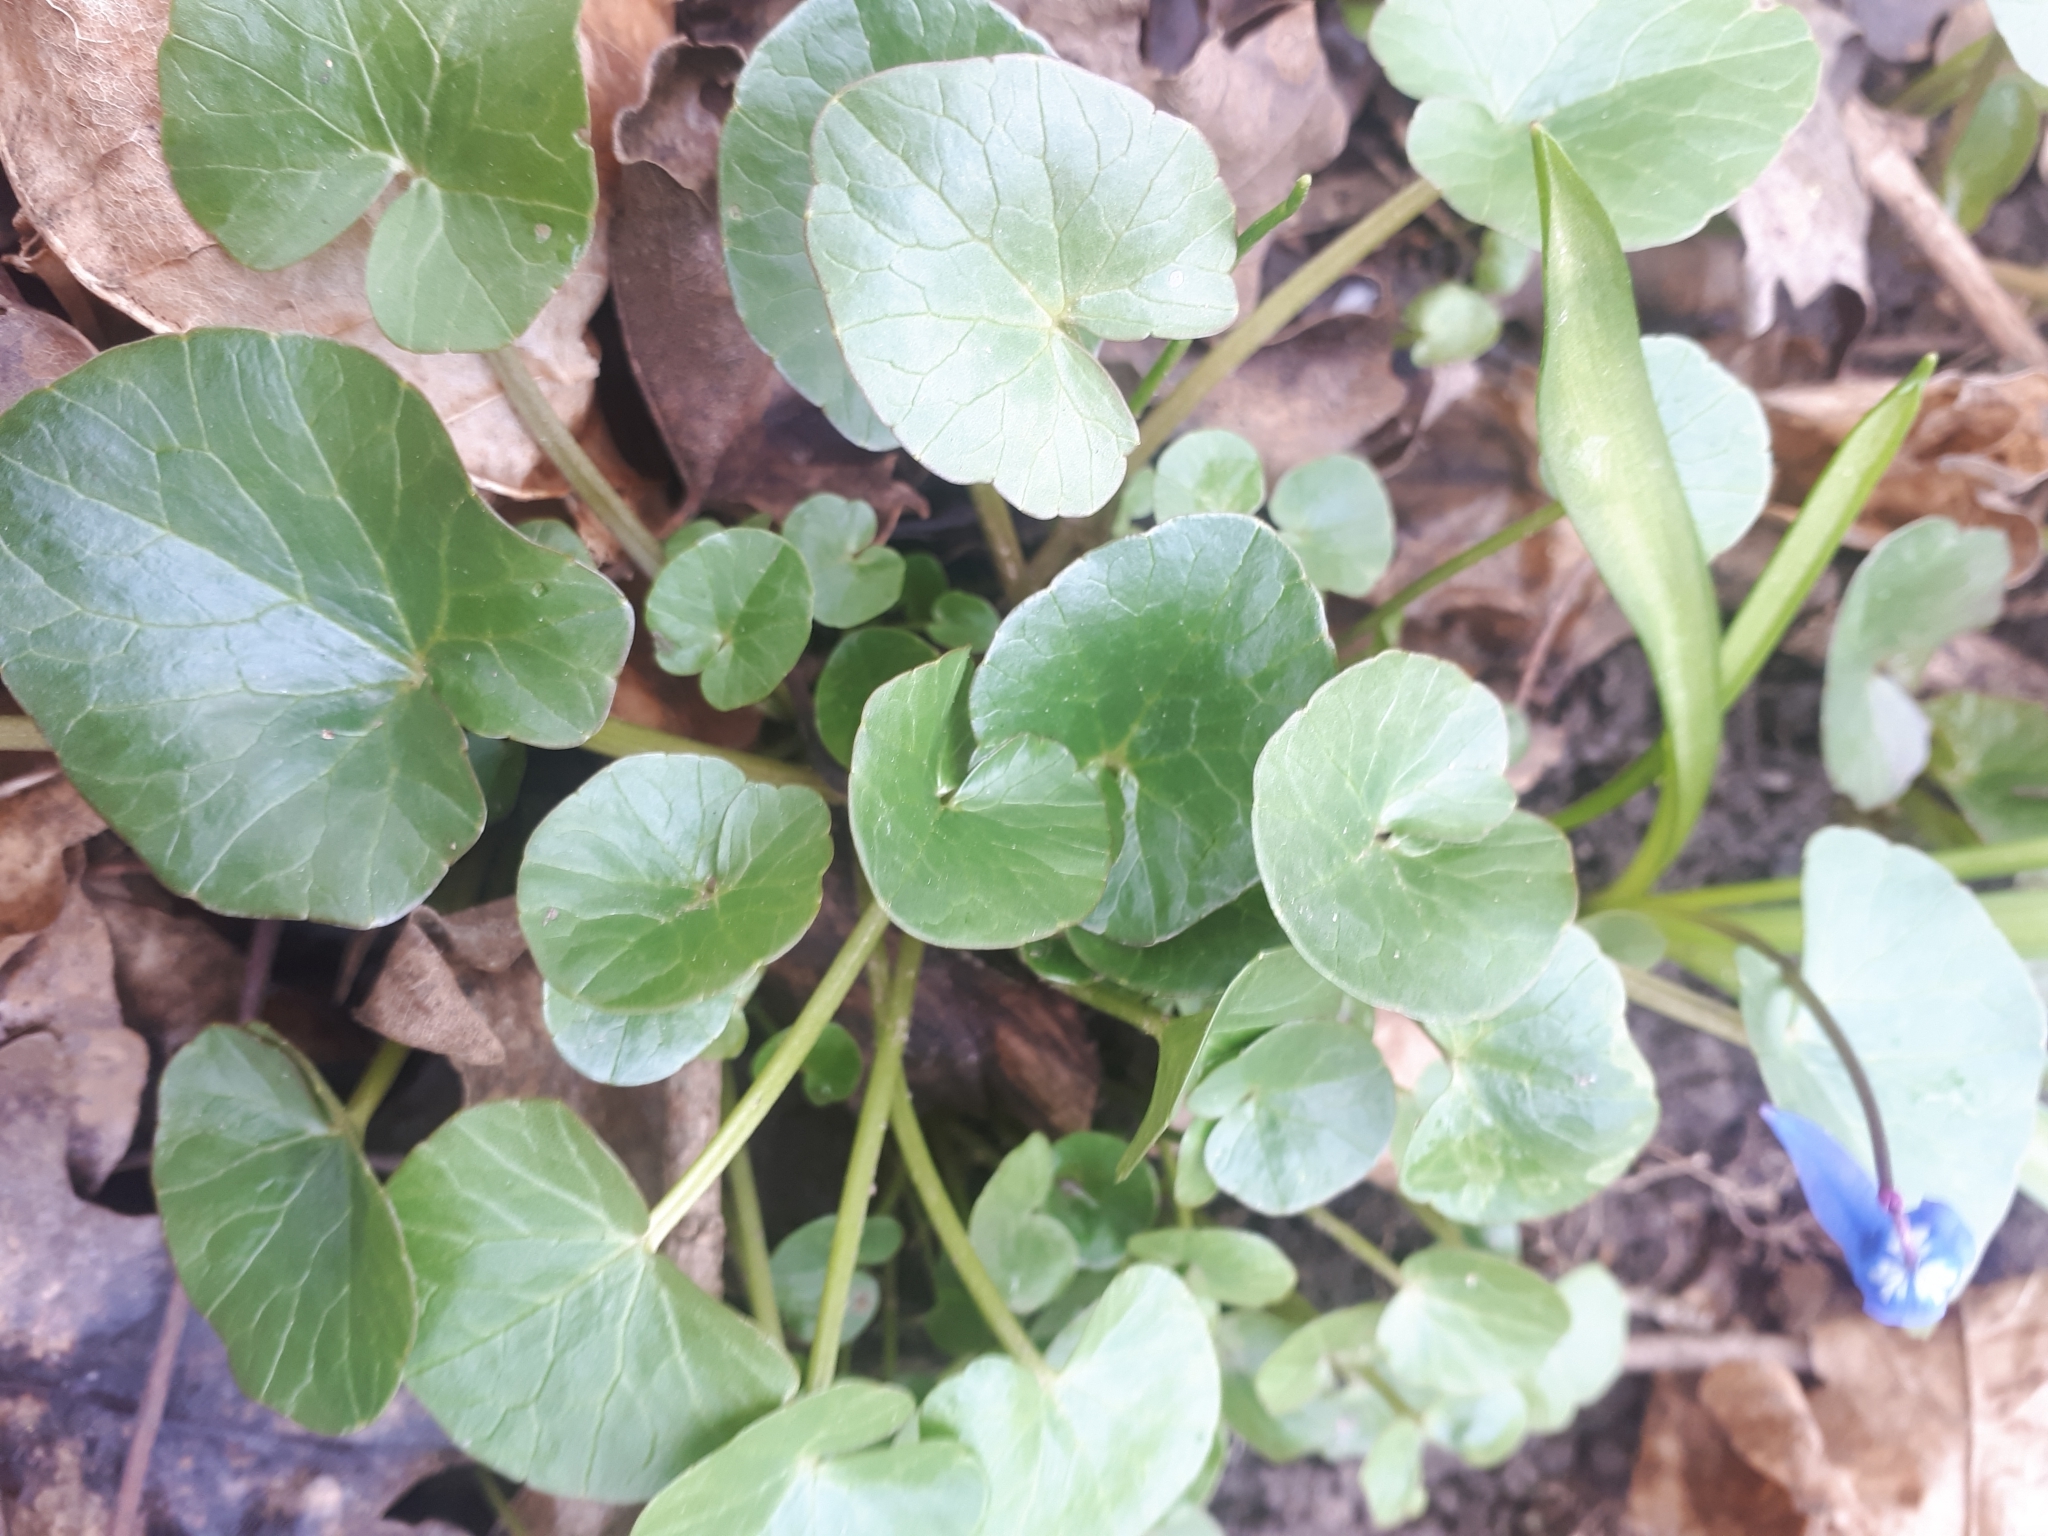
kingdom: Plantae
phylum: Tracheophyta
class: Magnoliopsida
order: Ranunculales
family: Ranunculaceae
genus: Ficaria
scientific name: Ficaria verna
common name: Lesser celandine
